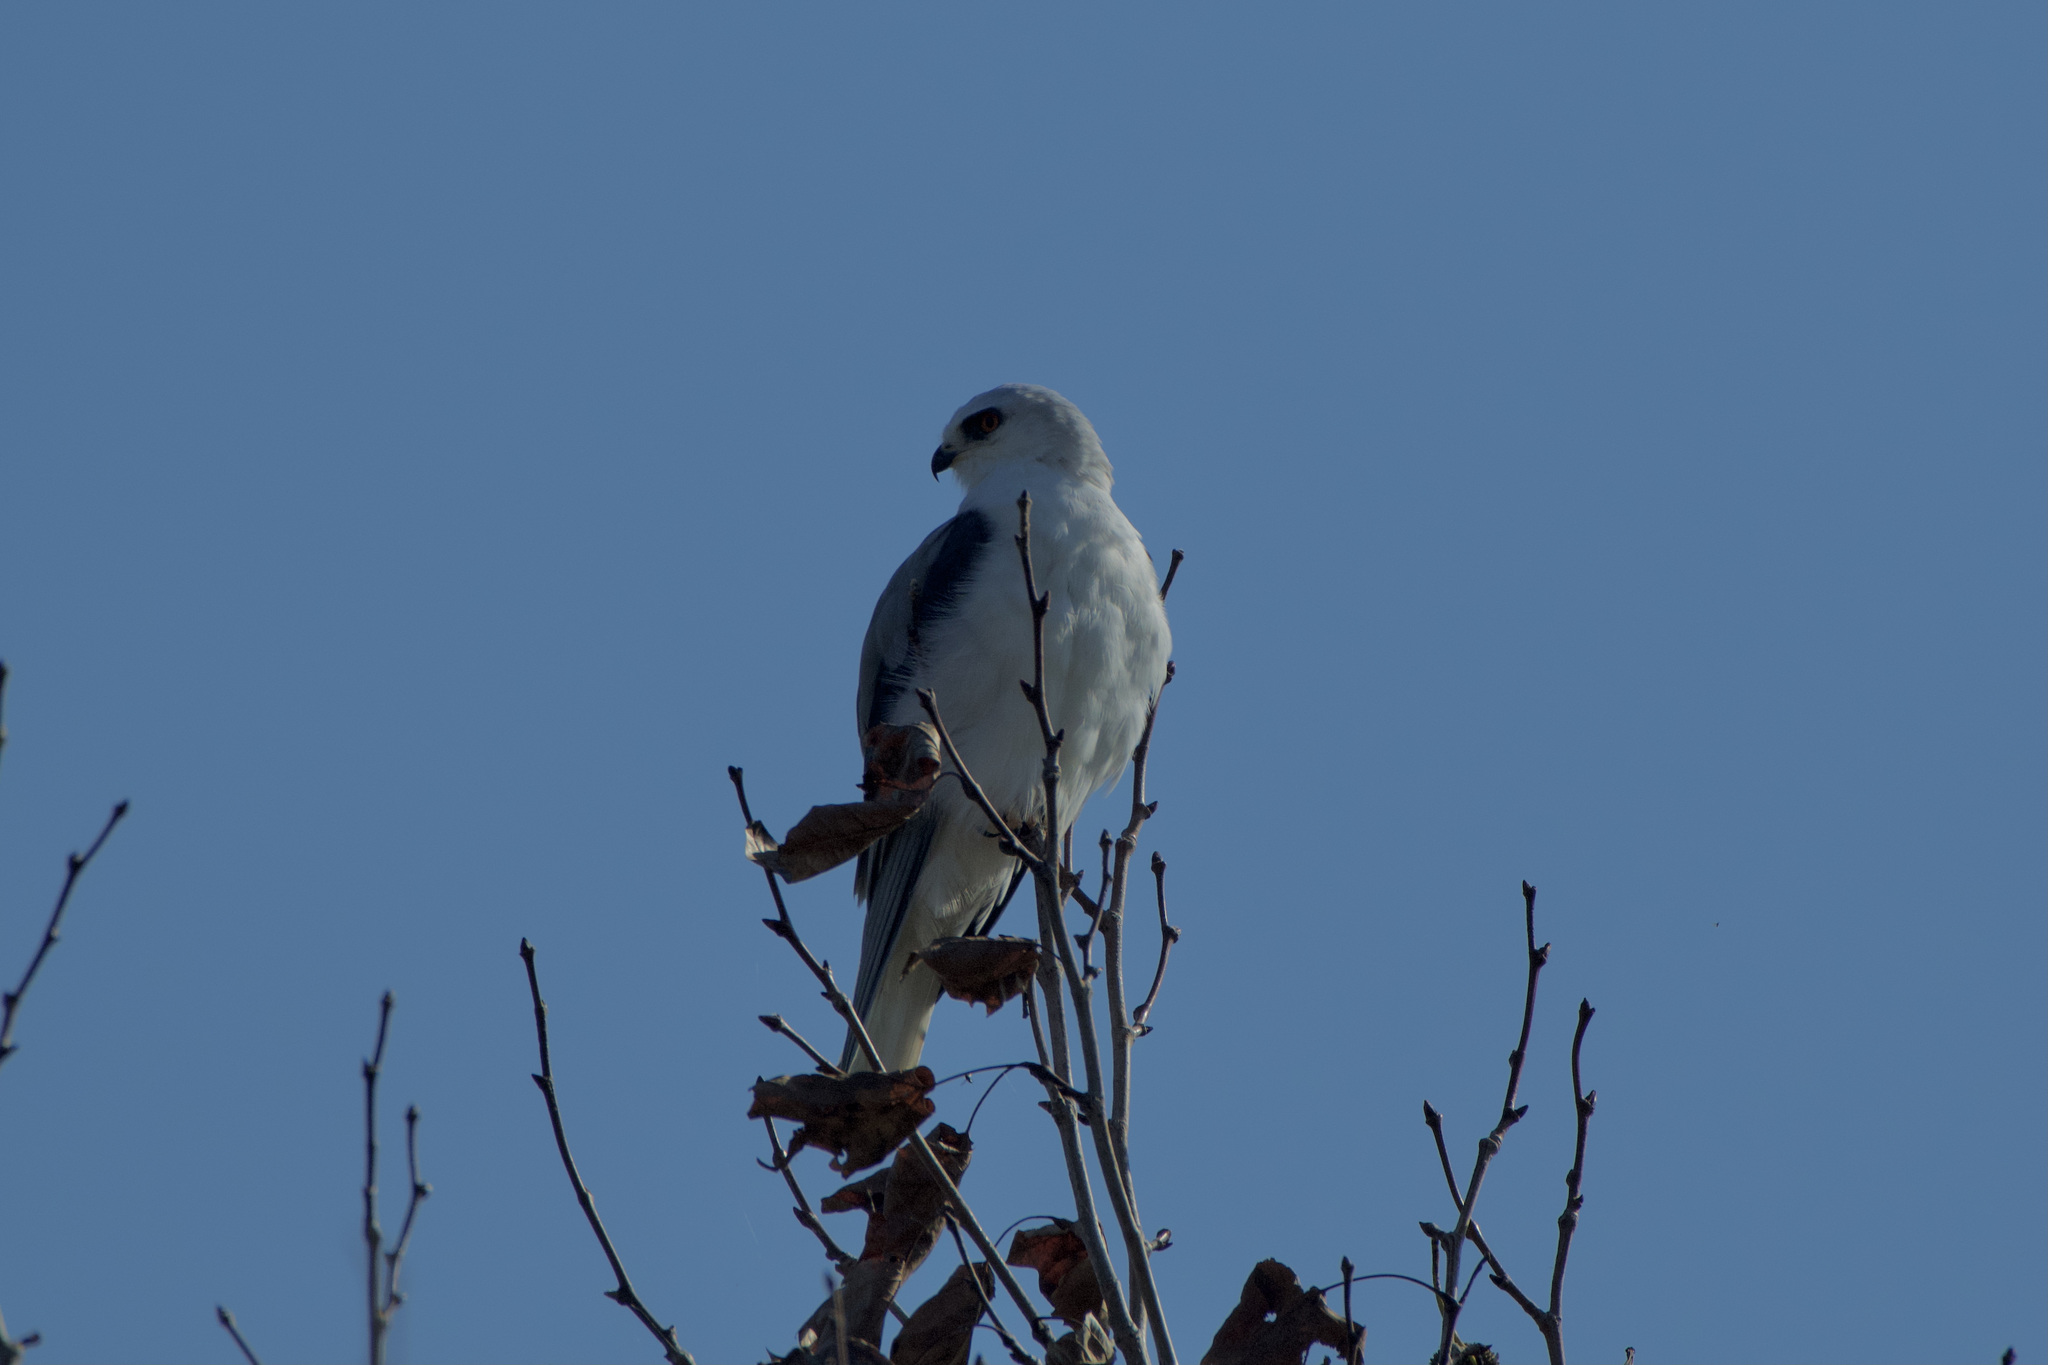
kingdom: Animalia
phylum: Chordata
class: Aves
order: Accipitriformes
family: Accipitridae
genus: Elanus
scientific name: Elanus leucurus
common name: White-tailed kite
